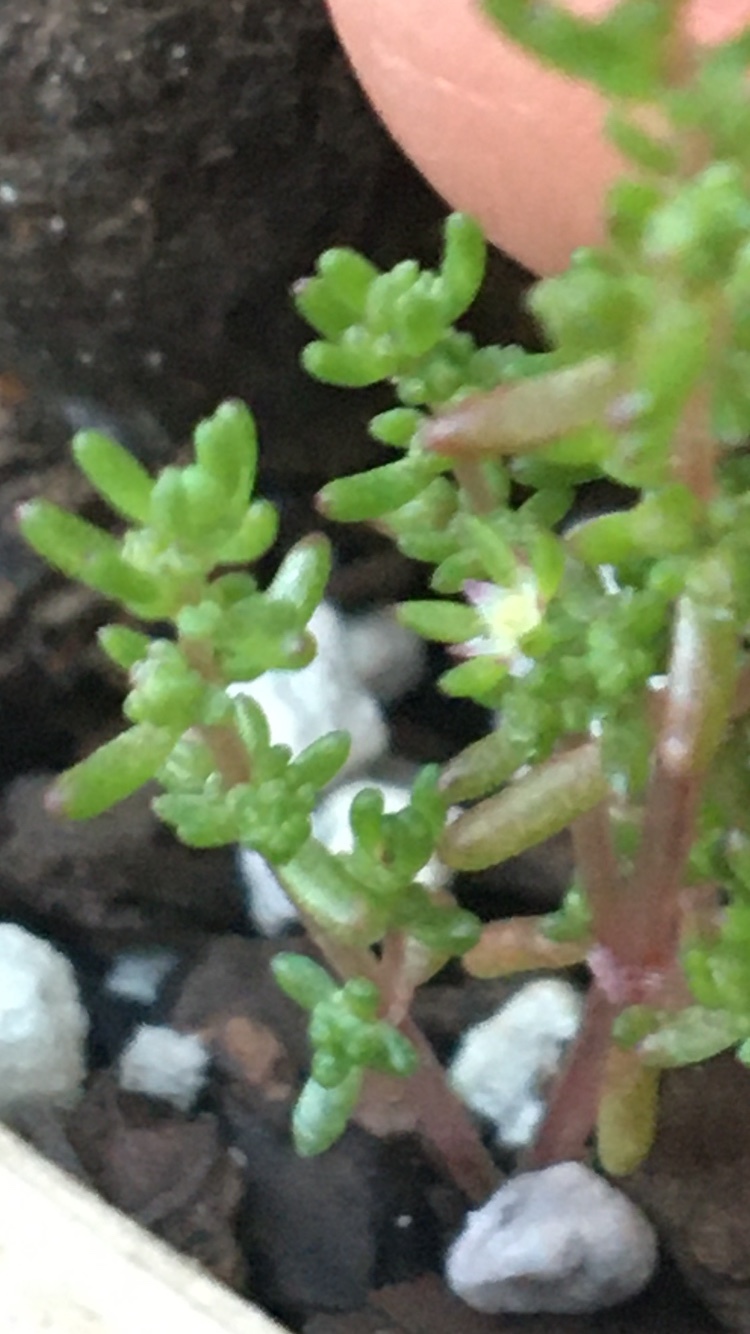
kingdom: Plantae
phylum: Tracheophyta
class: Magnoliopsida
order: Saxifragales
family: Crassulaceae
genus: Crassula
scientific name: Crassula vaillantii
